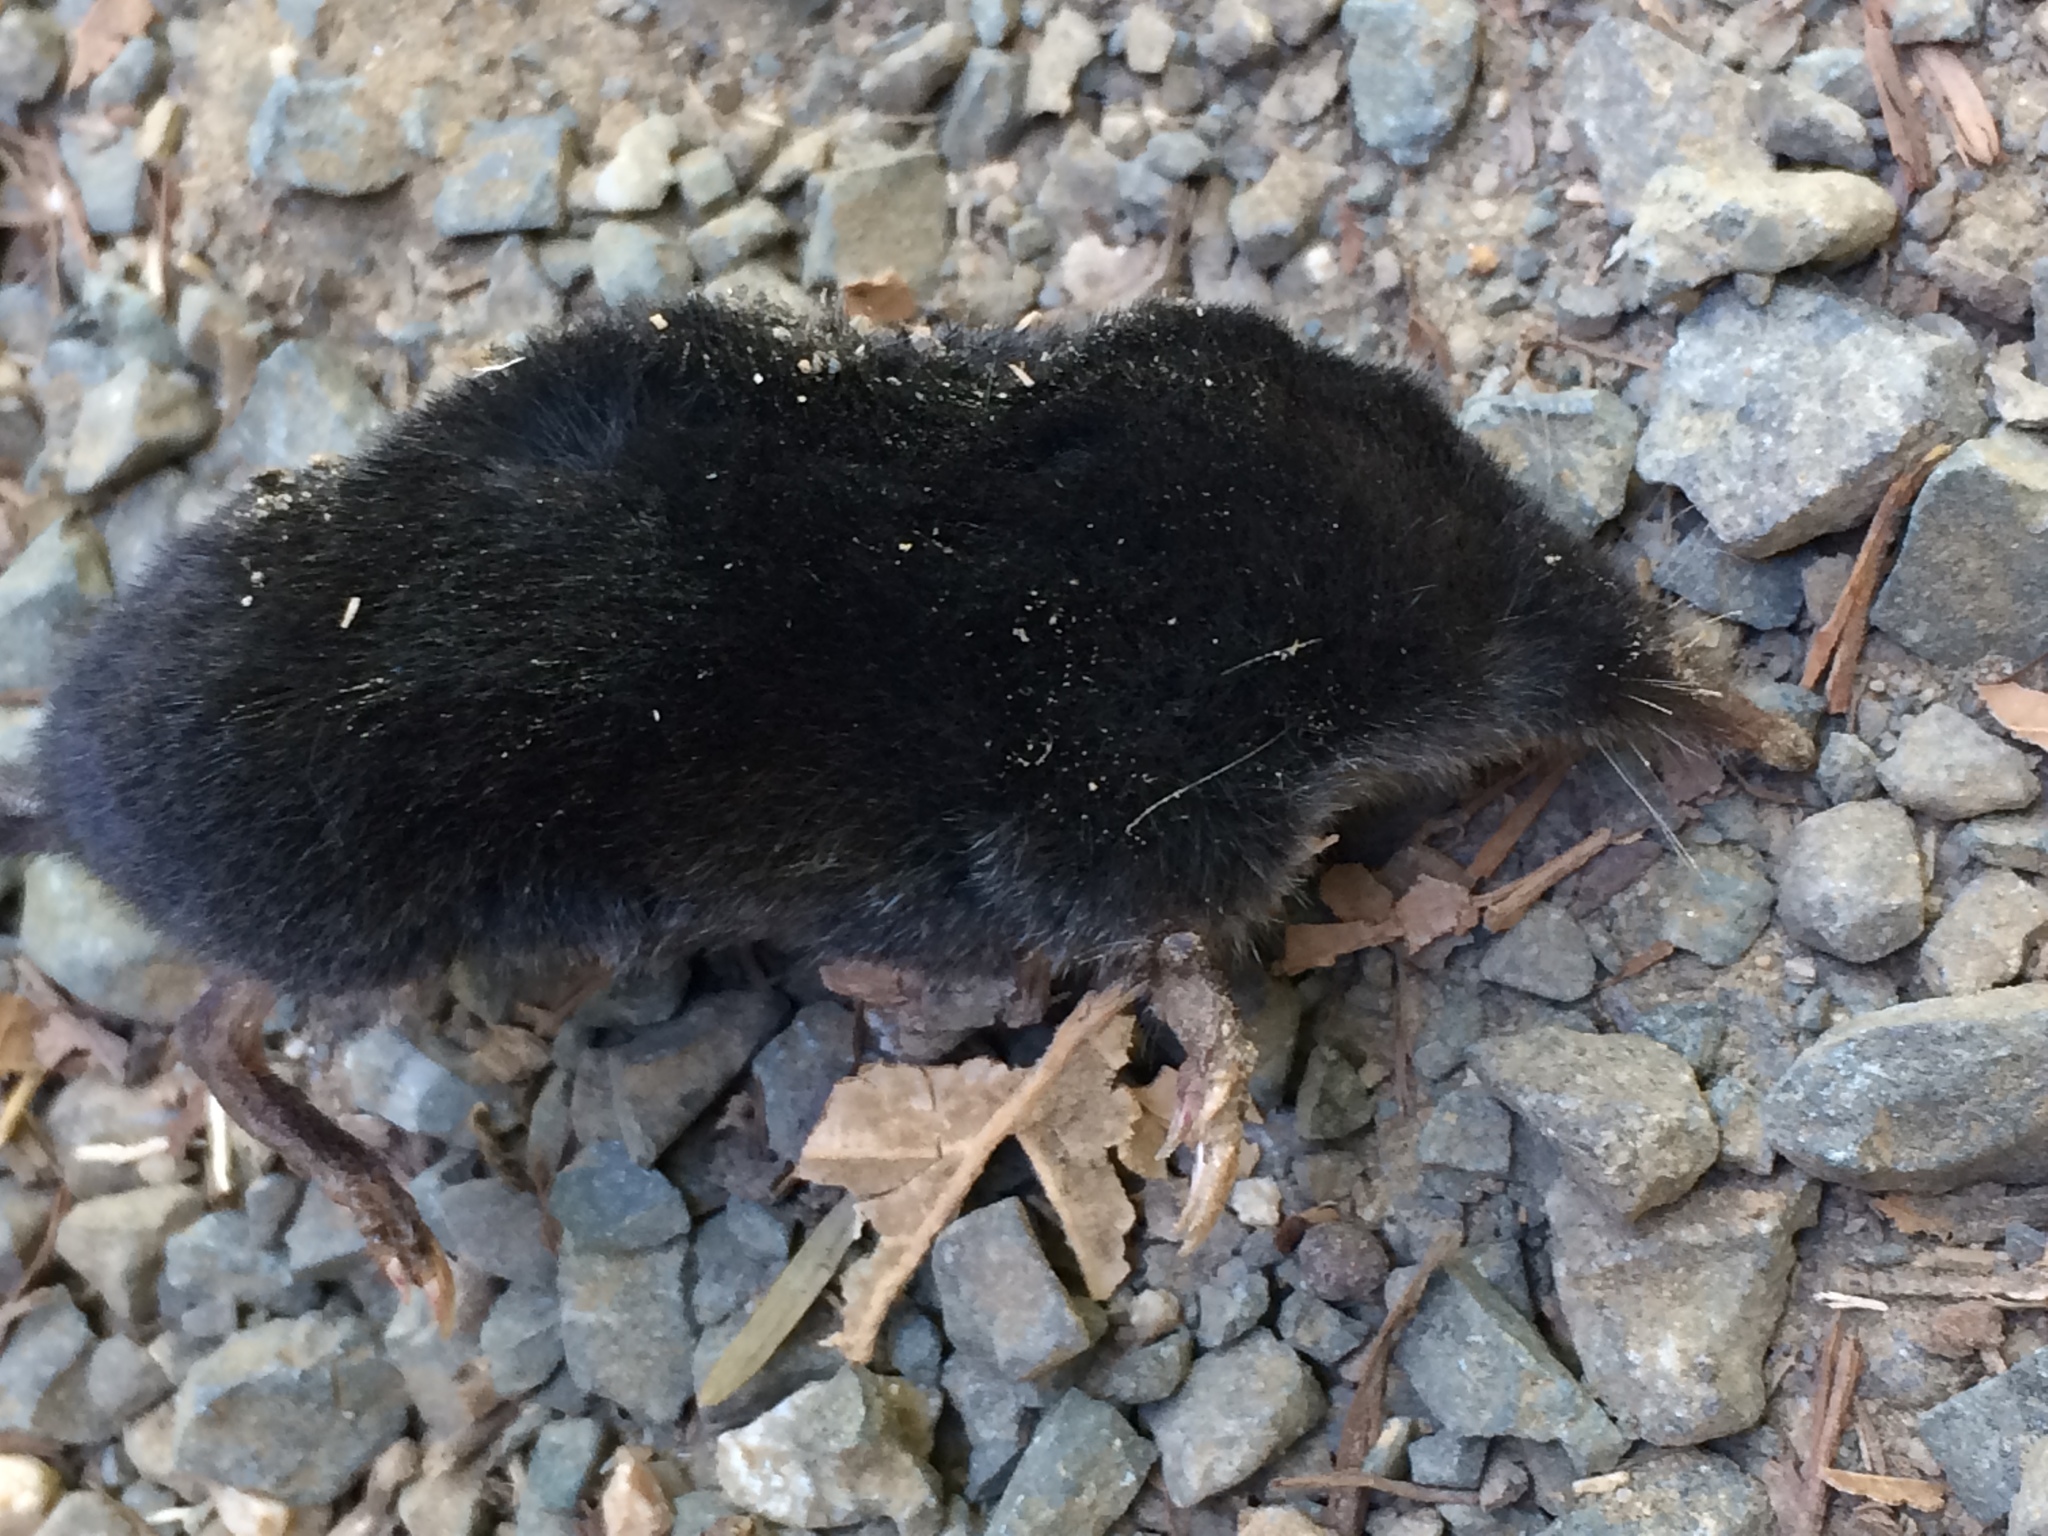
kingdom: Animalia
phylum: Chordata
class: Mammalia
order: Soricomorpha
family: Talpidae
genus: Neurotrichus
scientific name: Neurotrichus gibbsii
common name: American shrew mole
